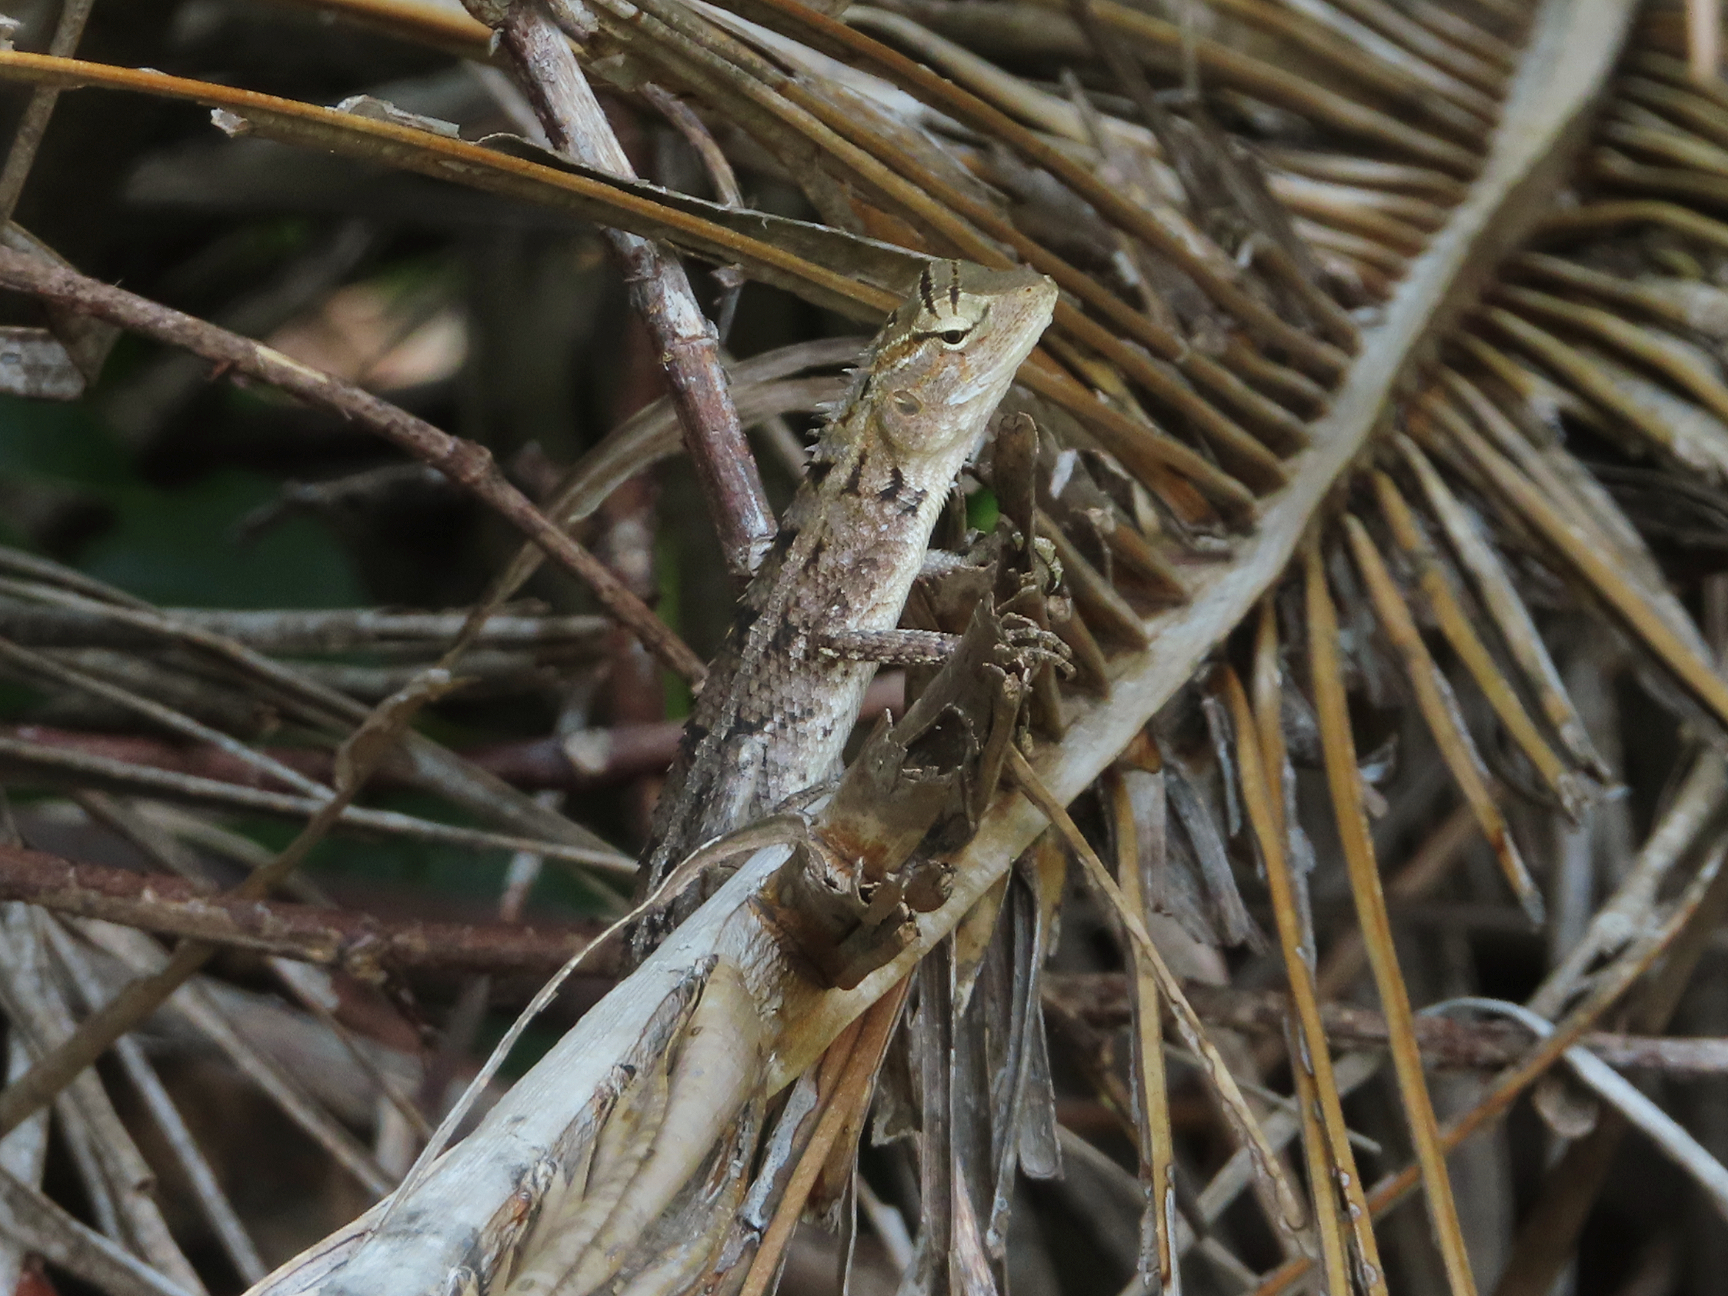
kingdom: Animalia
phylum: Chordata
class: Squamata
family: Agamidae
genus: Calotes
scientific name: Calotes versicolor
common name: Oriental garden lizard
